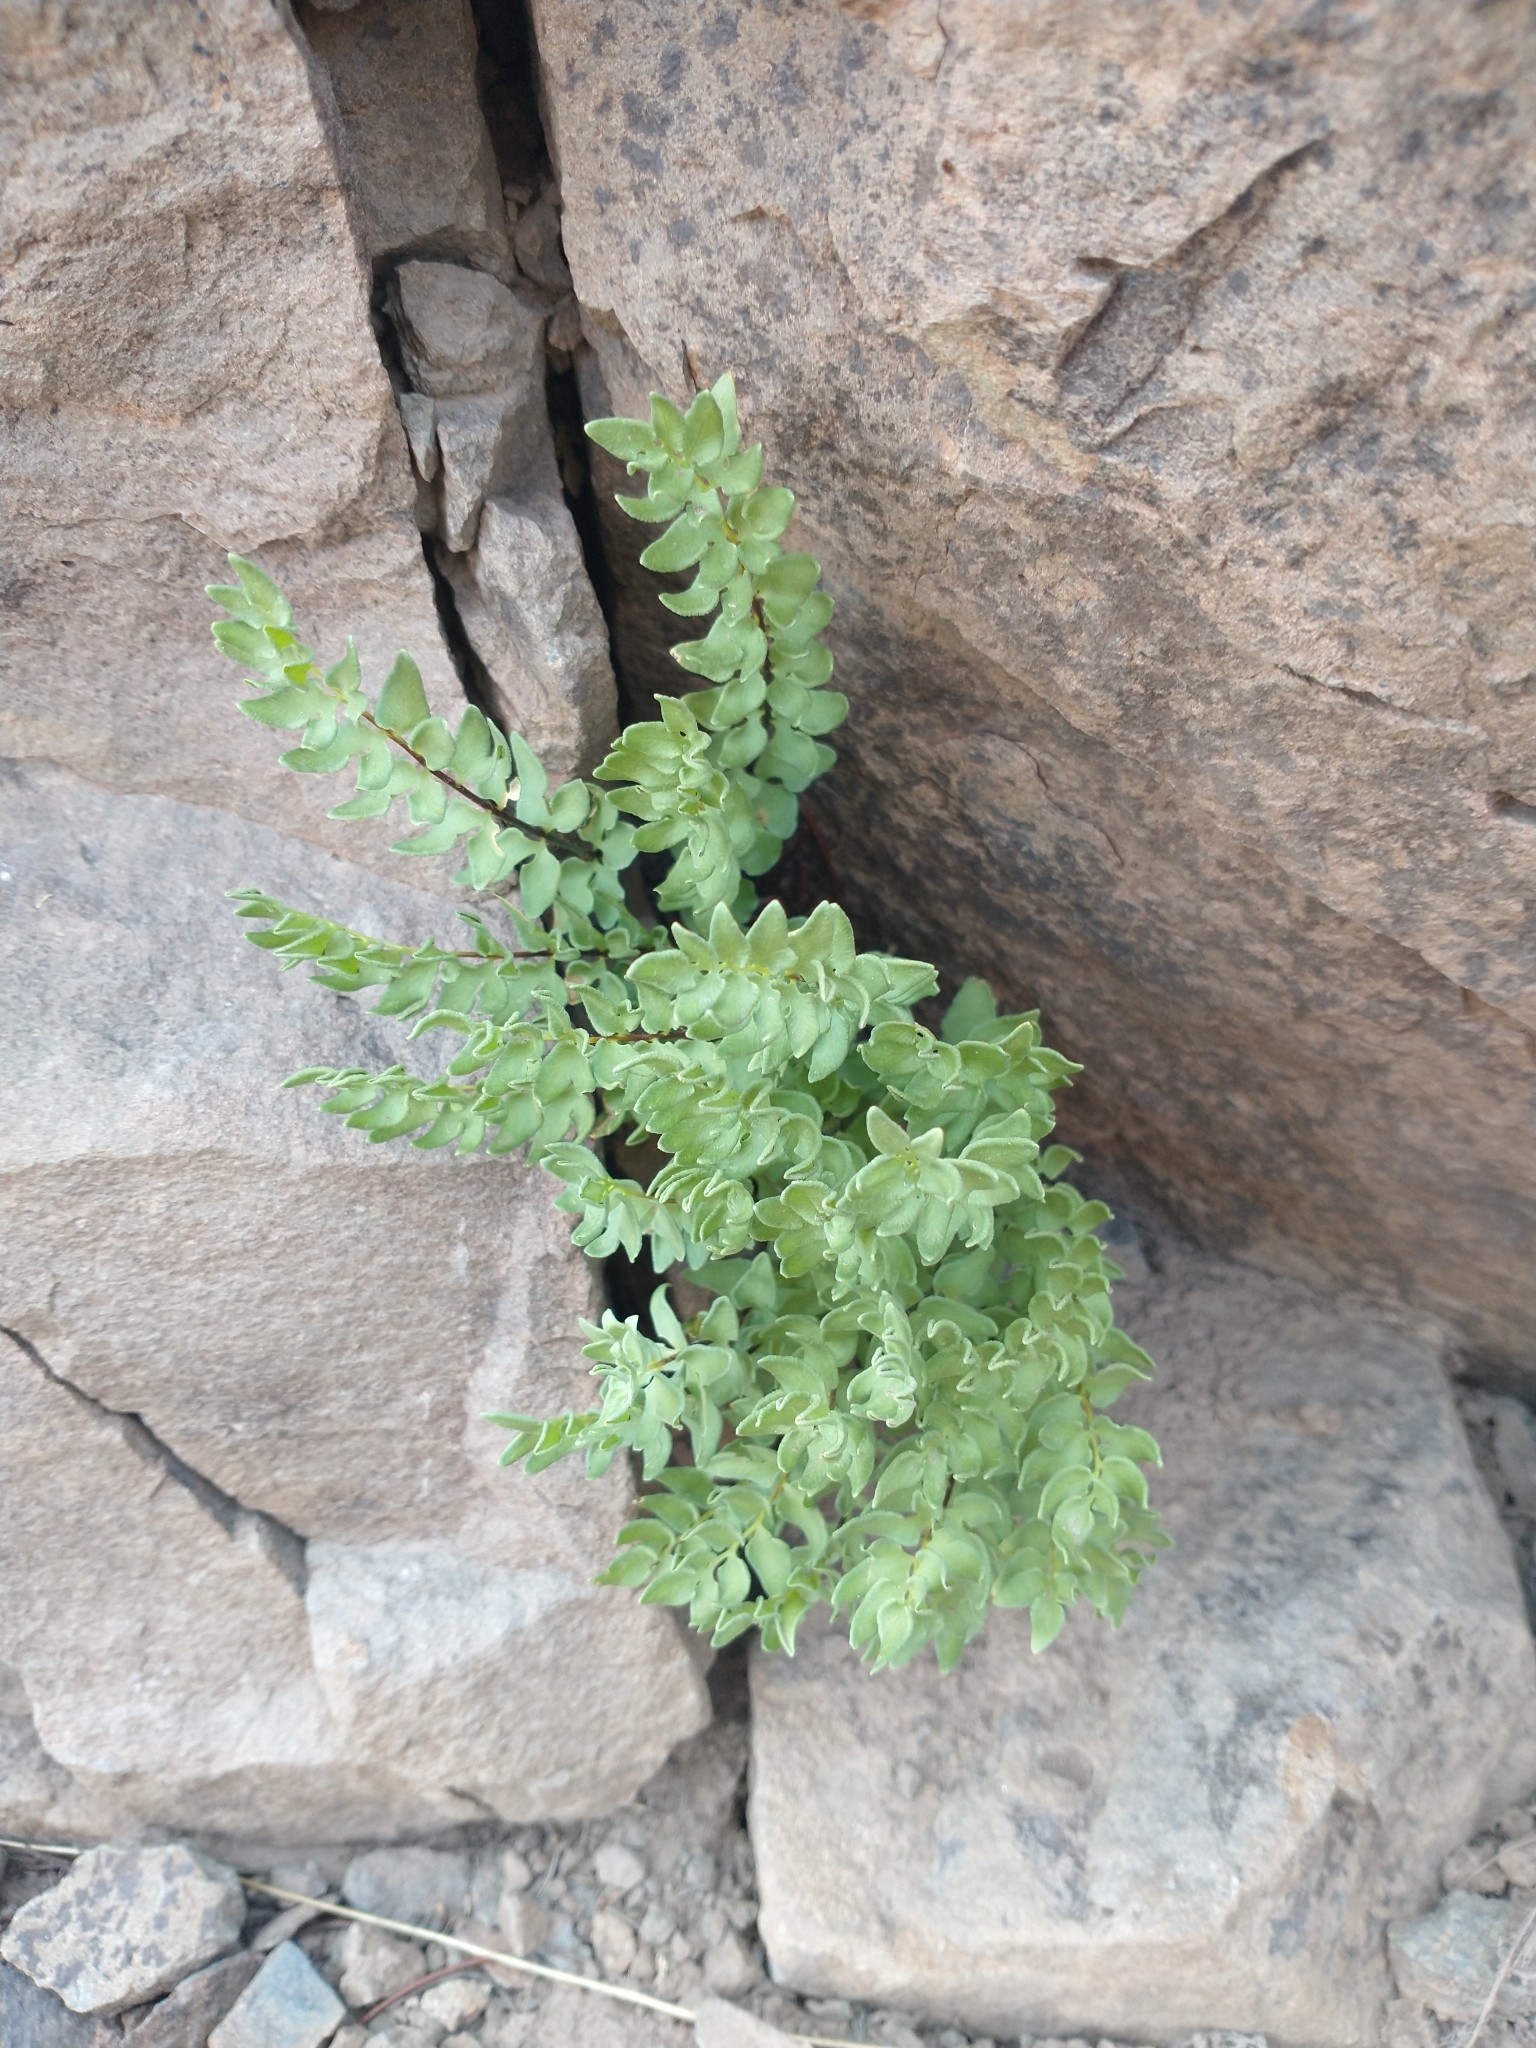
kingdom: Plantae
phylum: Tracheophyta
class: Polypodiopsida
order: Polypodiales
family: Pteridaceae
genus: Pellaea
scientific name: Pellaea breweri
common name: Brewer's cliffbrake
